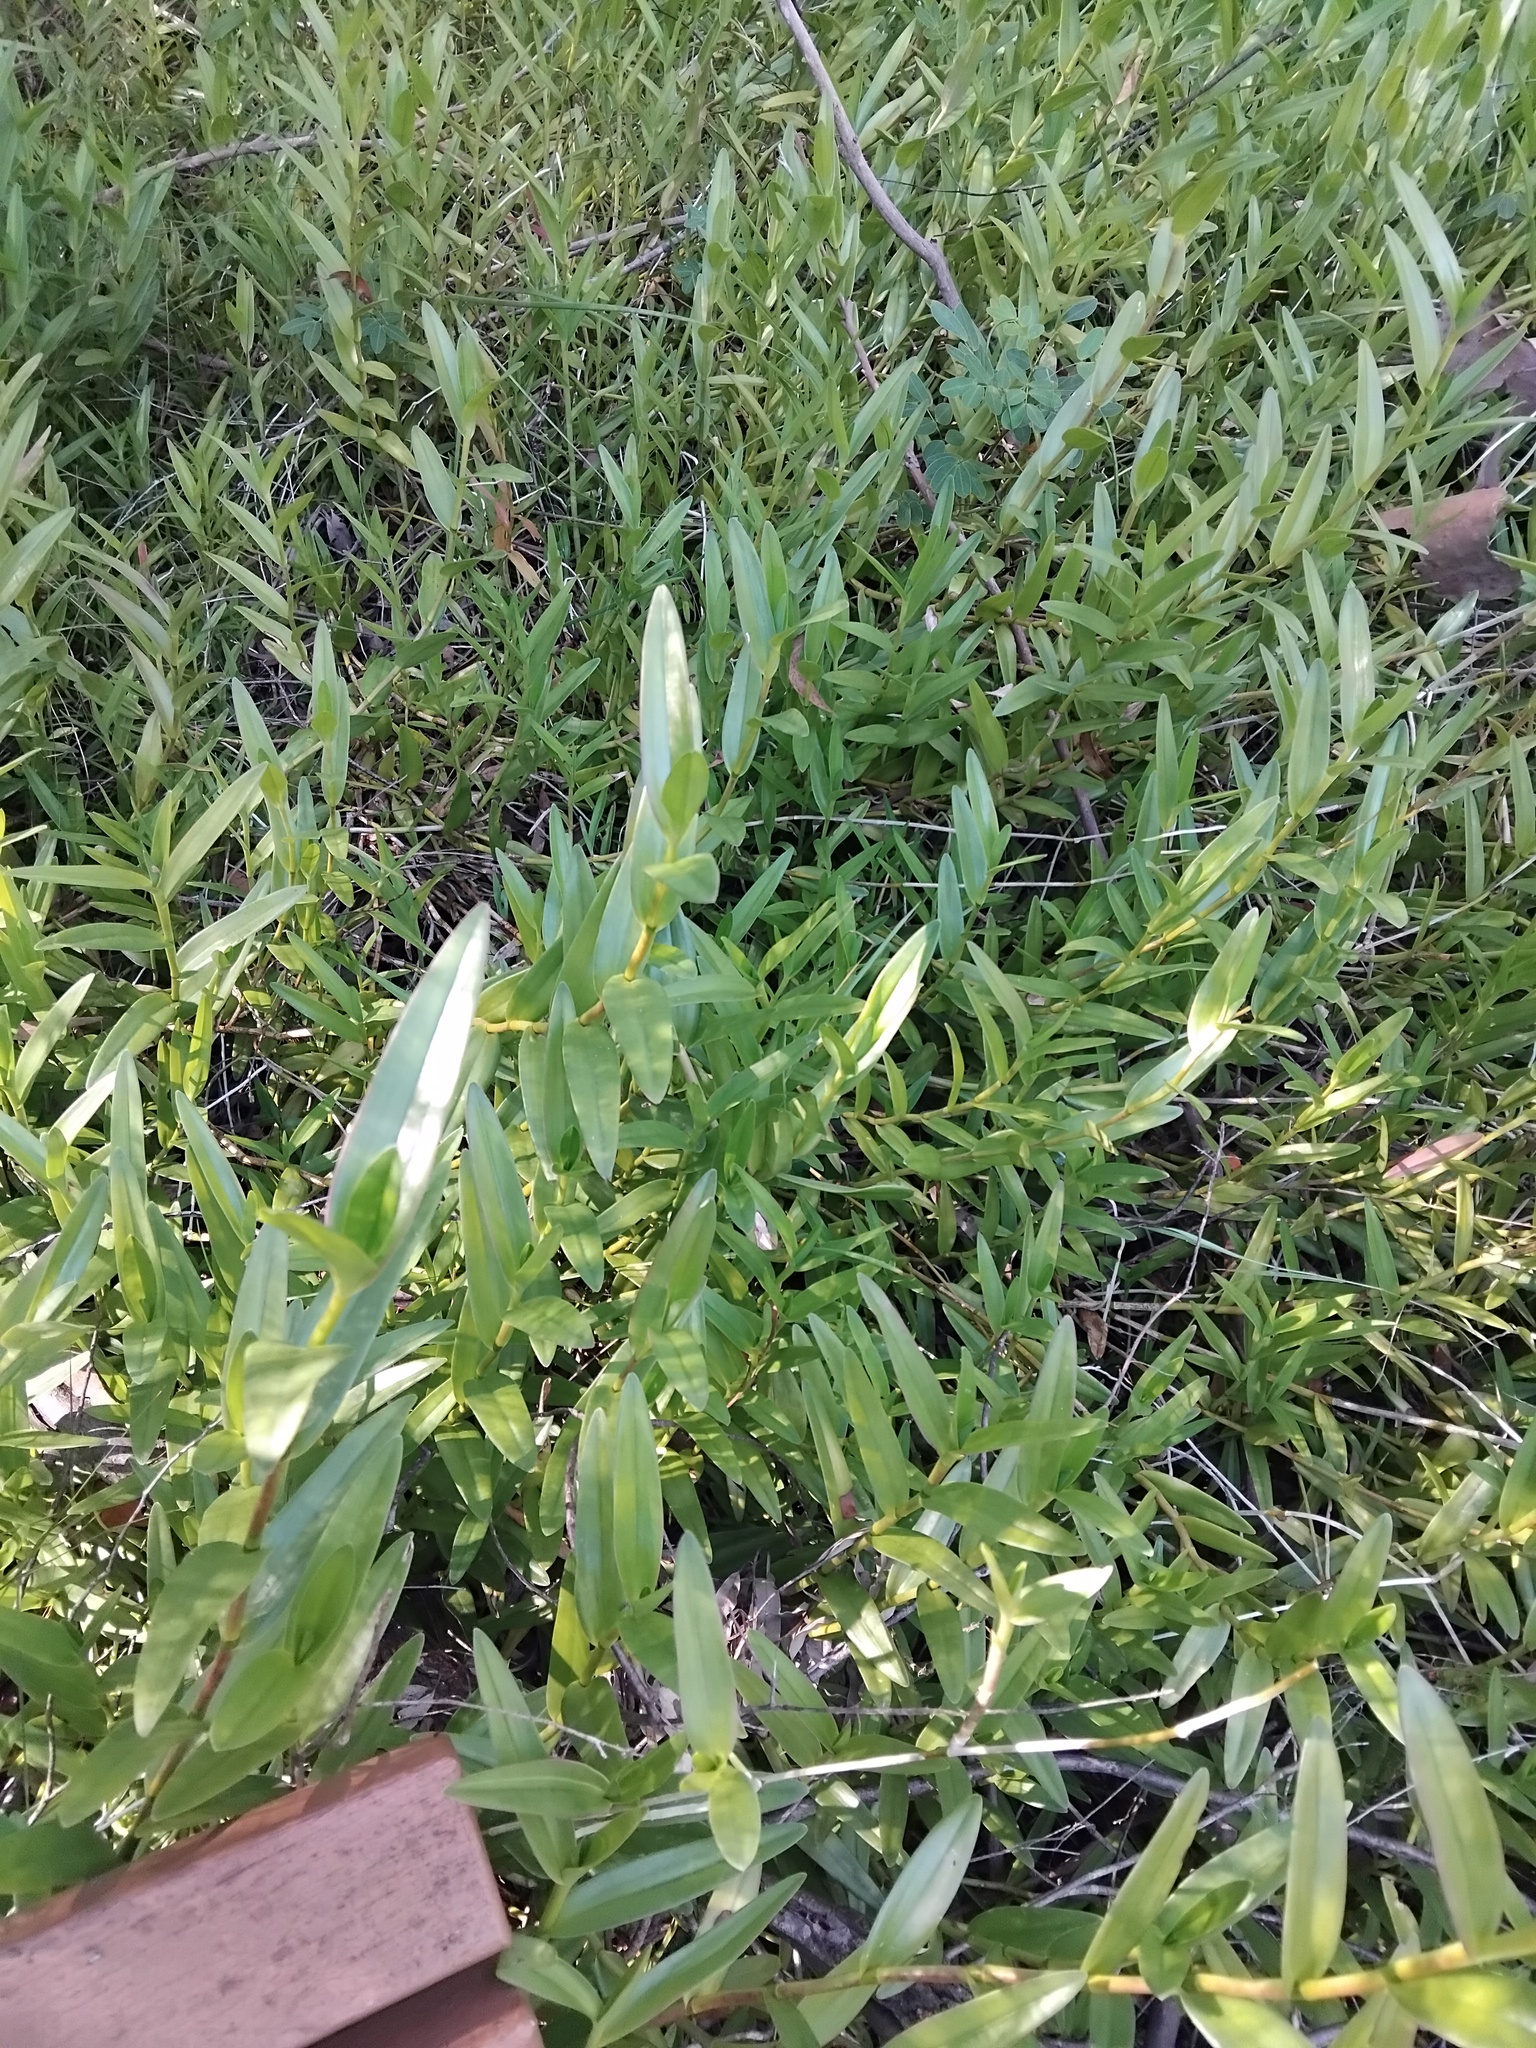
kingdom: Plantae
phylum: Tracheophyta
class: Liliopsida
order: Asparagales
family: Orchidaceae
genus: Epidendrum
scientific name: Epidendrum radicans
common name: Fire star orchid
